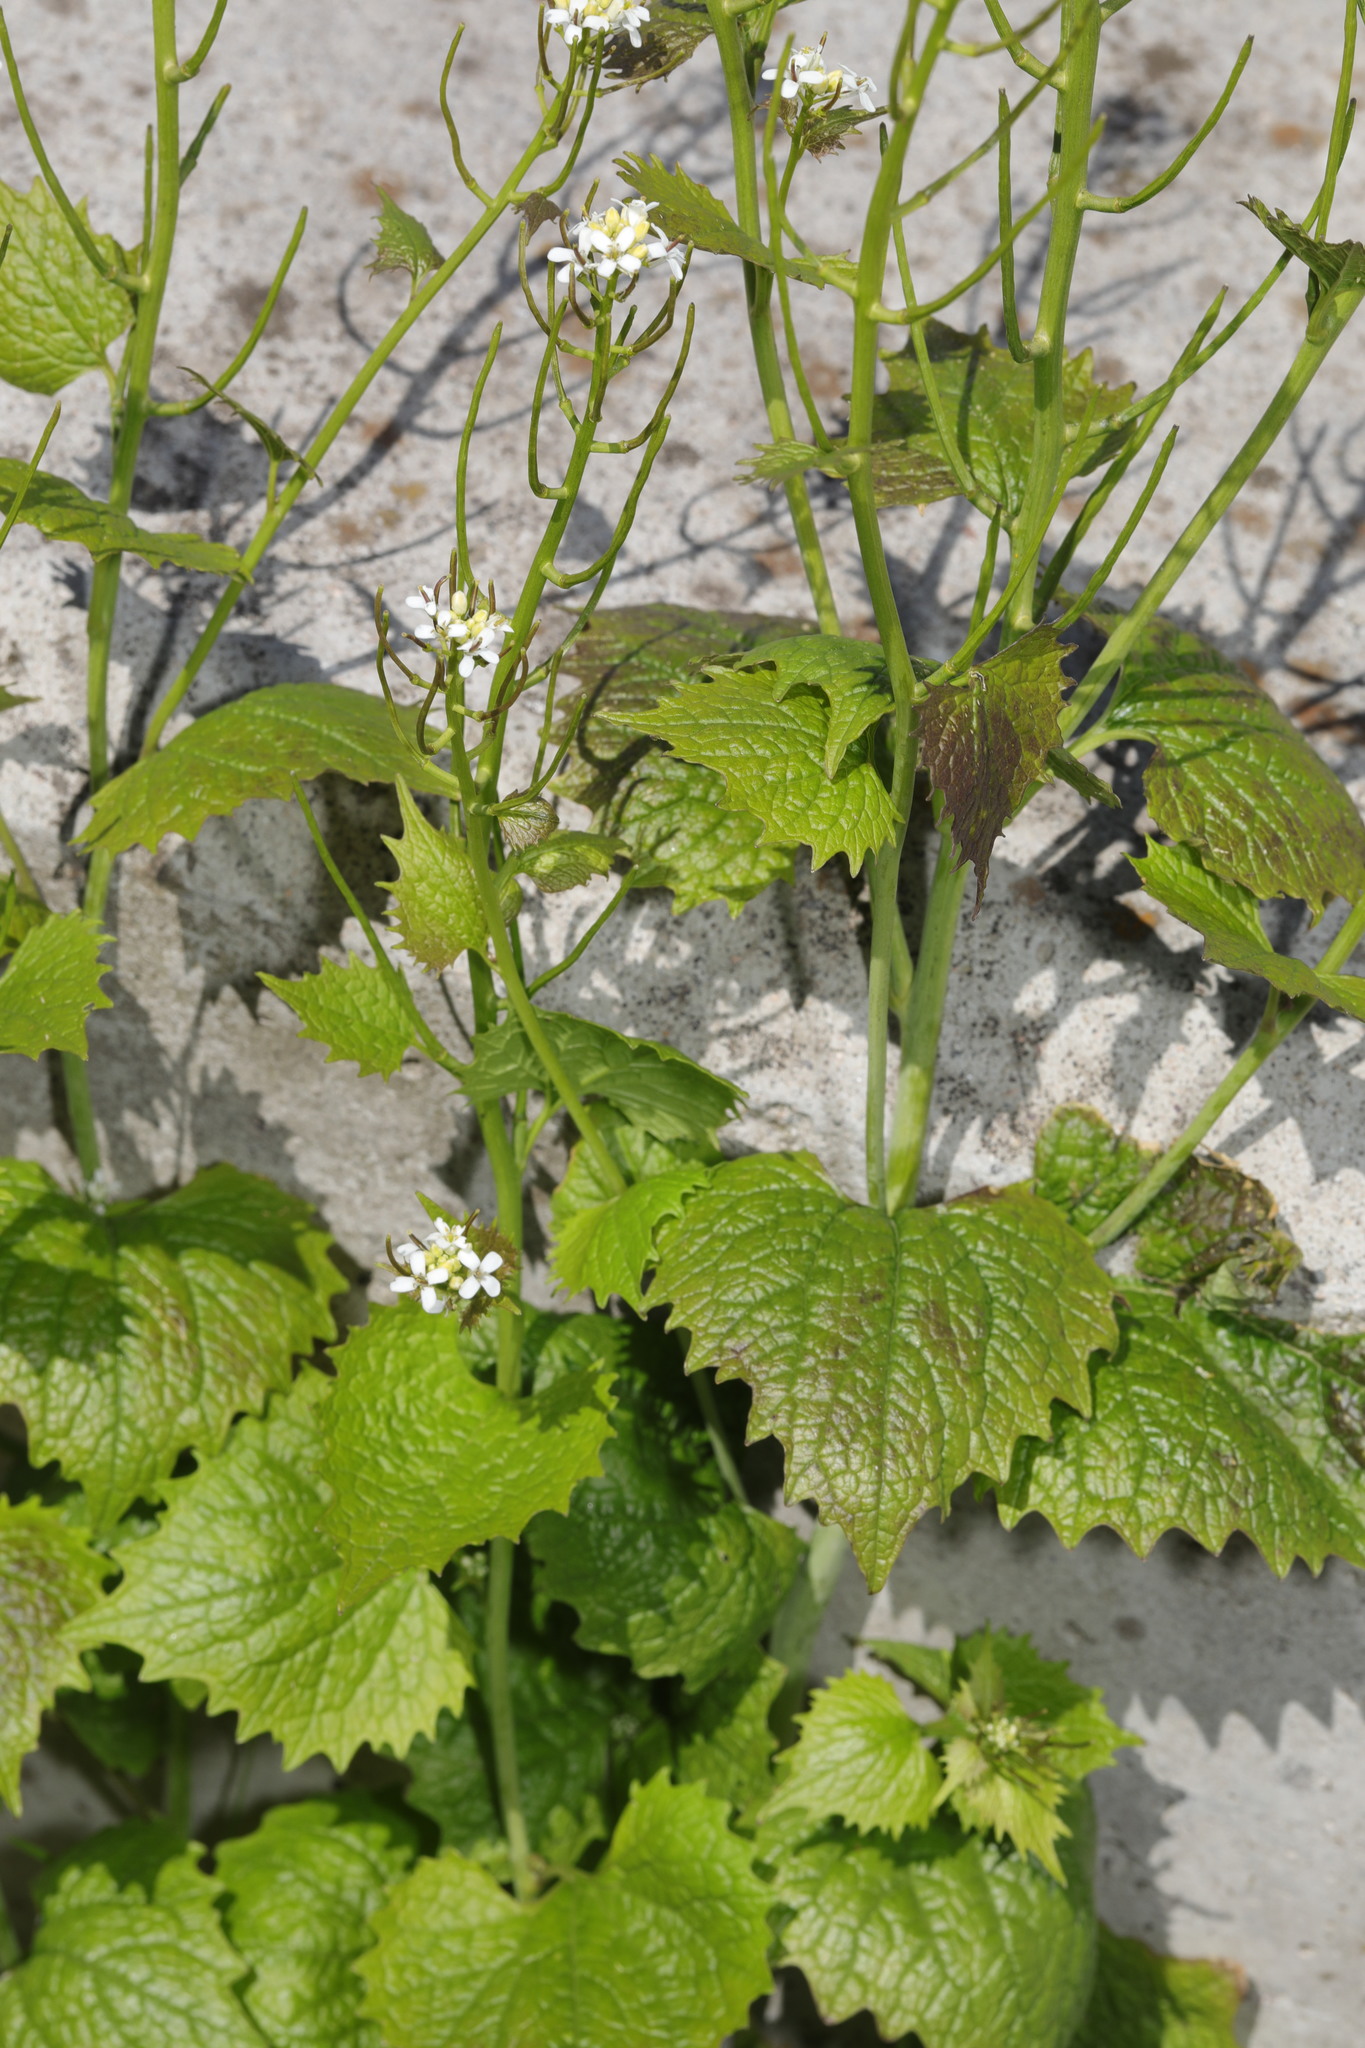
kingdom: Plantae
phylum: Tracheophyta
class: Magnoliopsida
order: Brassicales
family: Brassicaceae
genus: Alliaria
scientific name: Alliaria petiolata
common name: Garlic mustard
